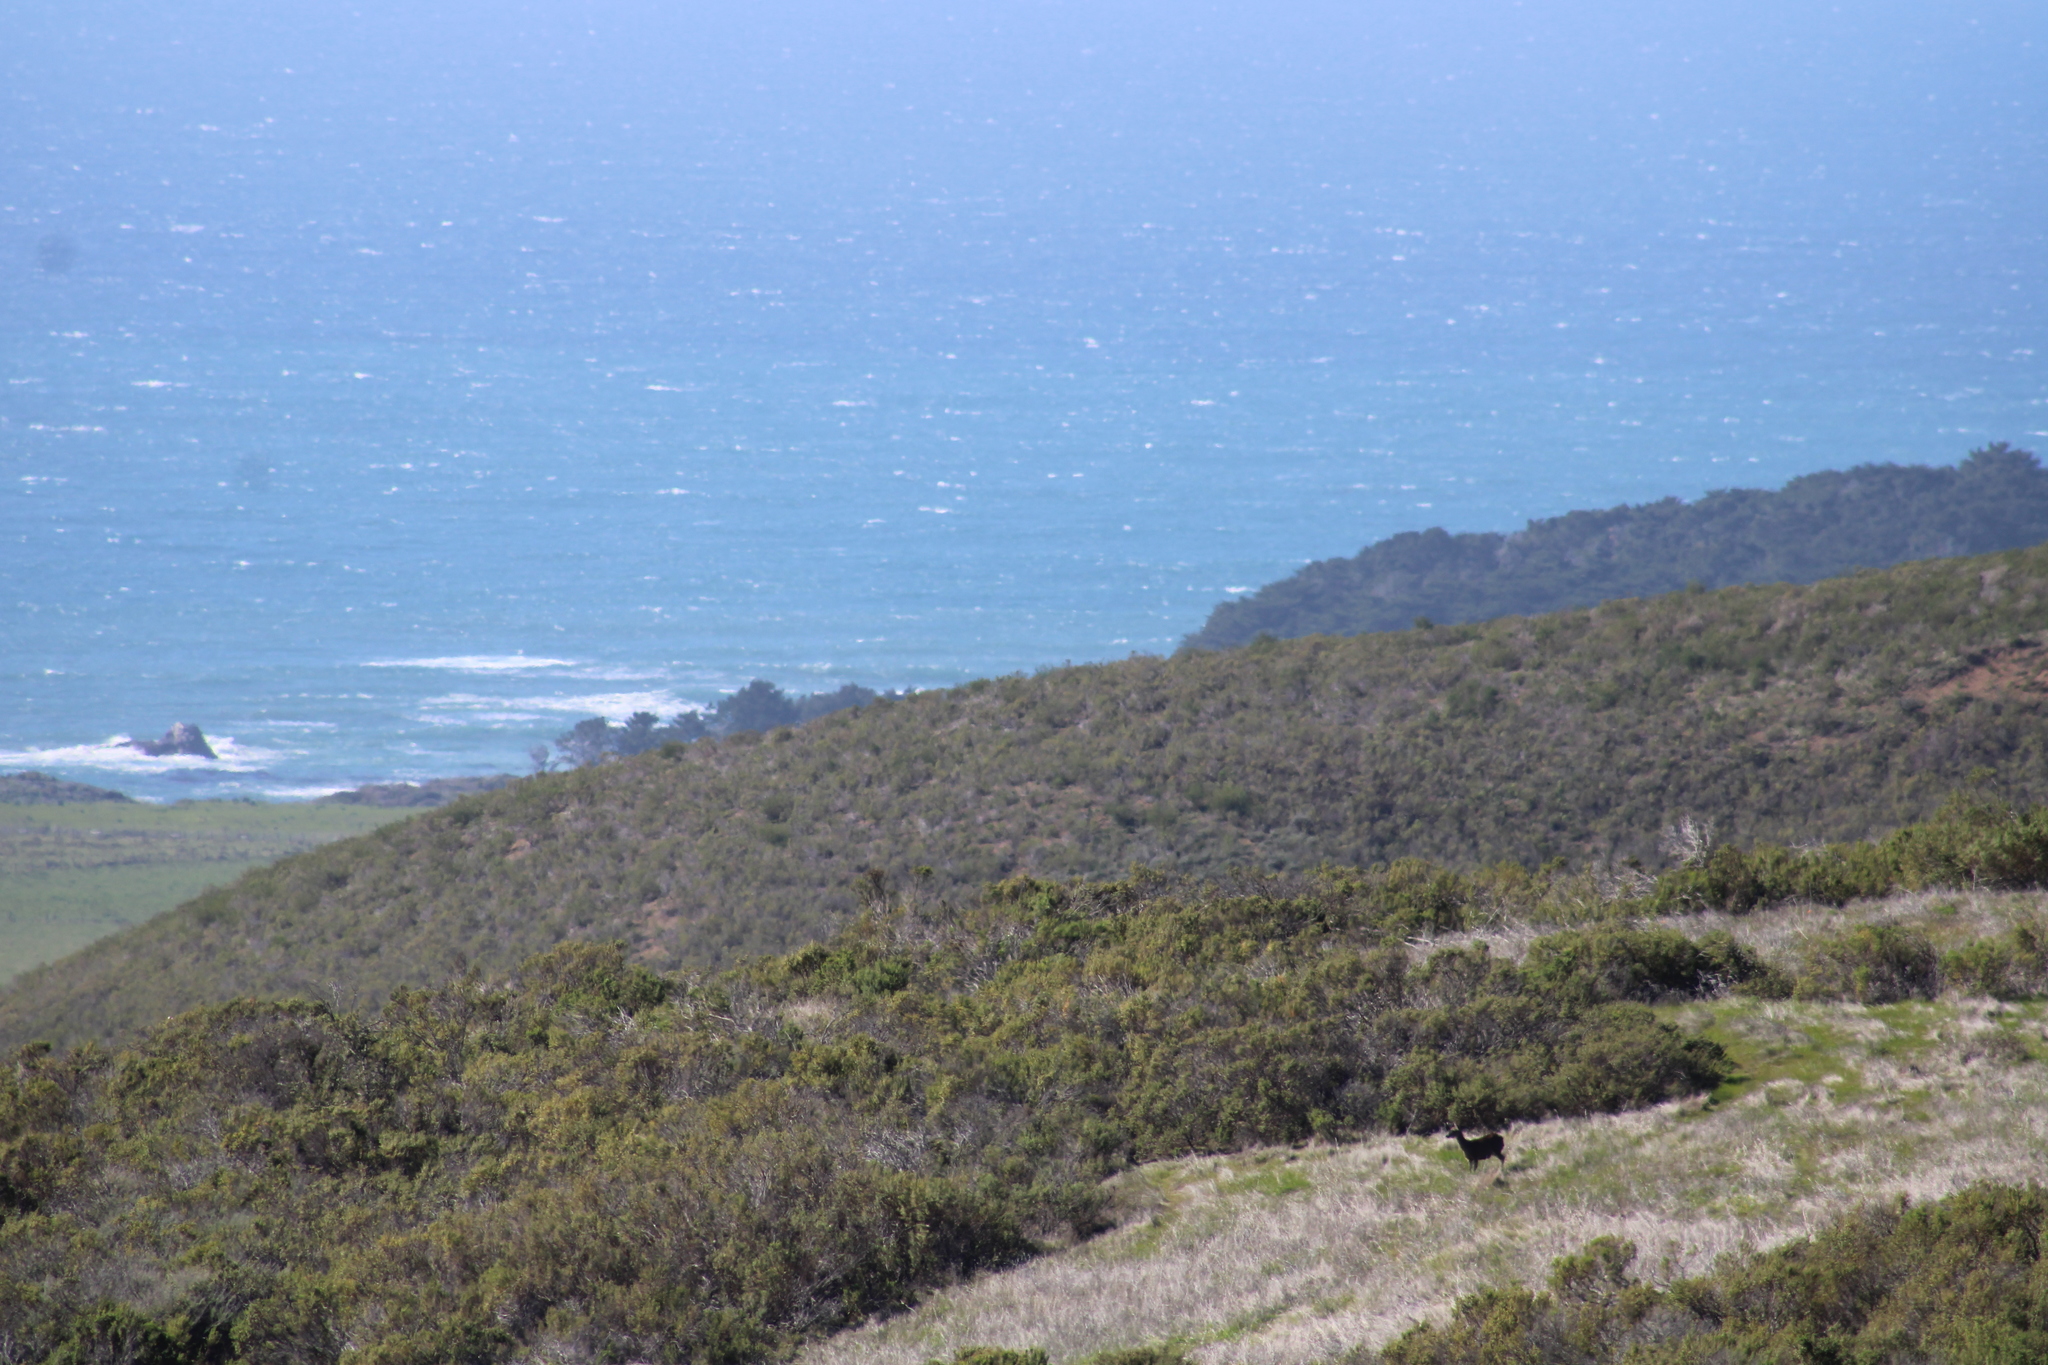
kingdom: Animalia
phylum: Chordata
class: Mammalia
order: Artiodactyla
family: Cervidae
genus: Odocoileus
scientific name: Odocoileus hemionus
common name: Mule deer
